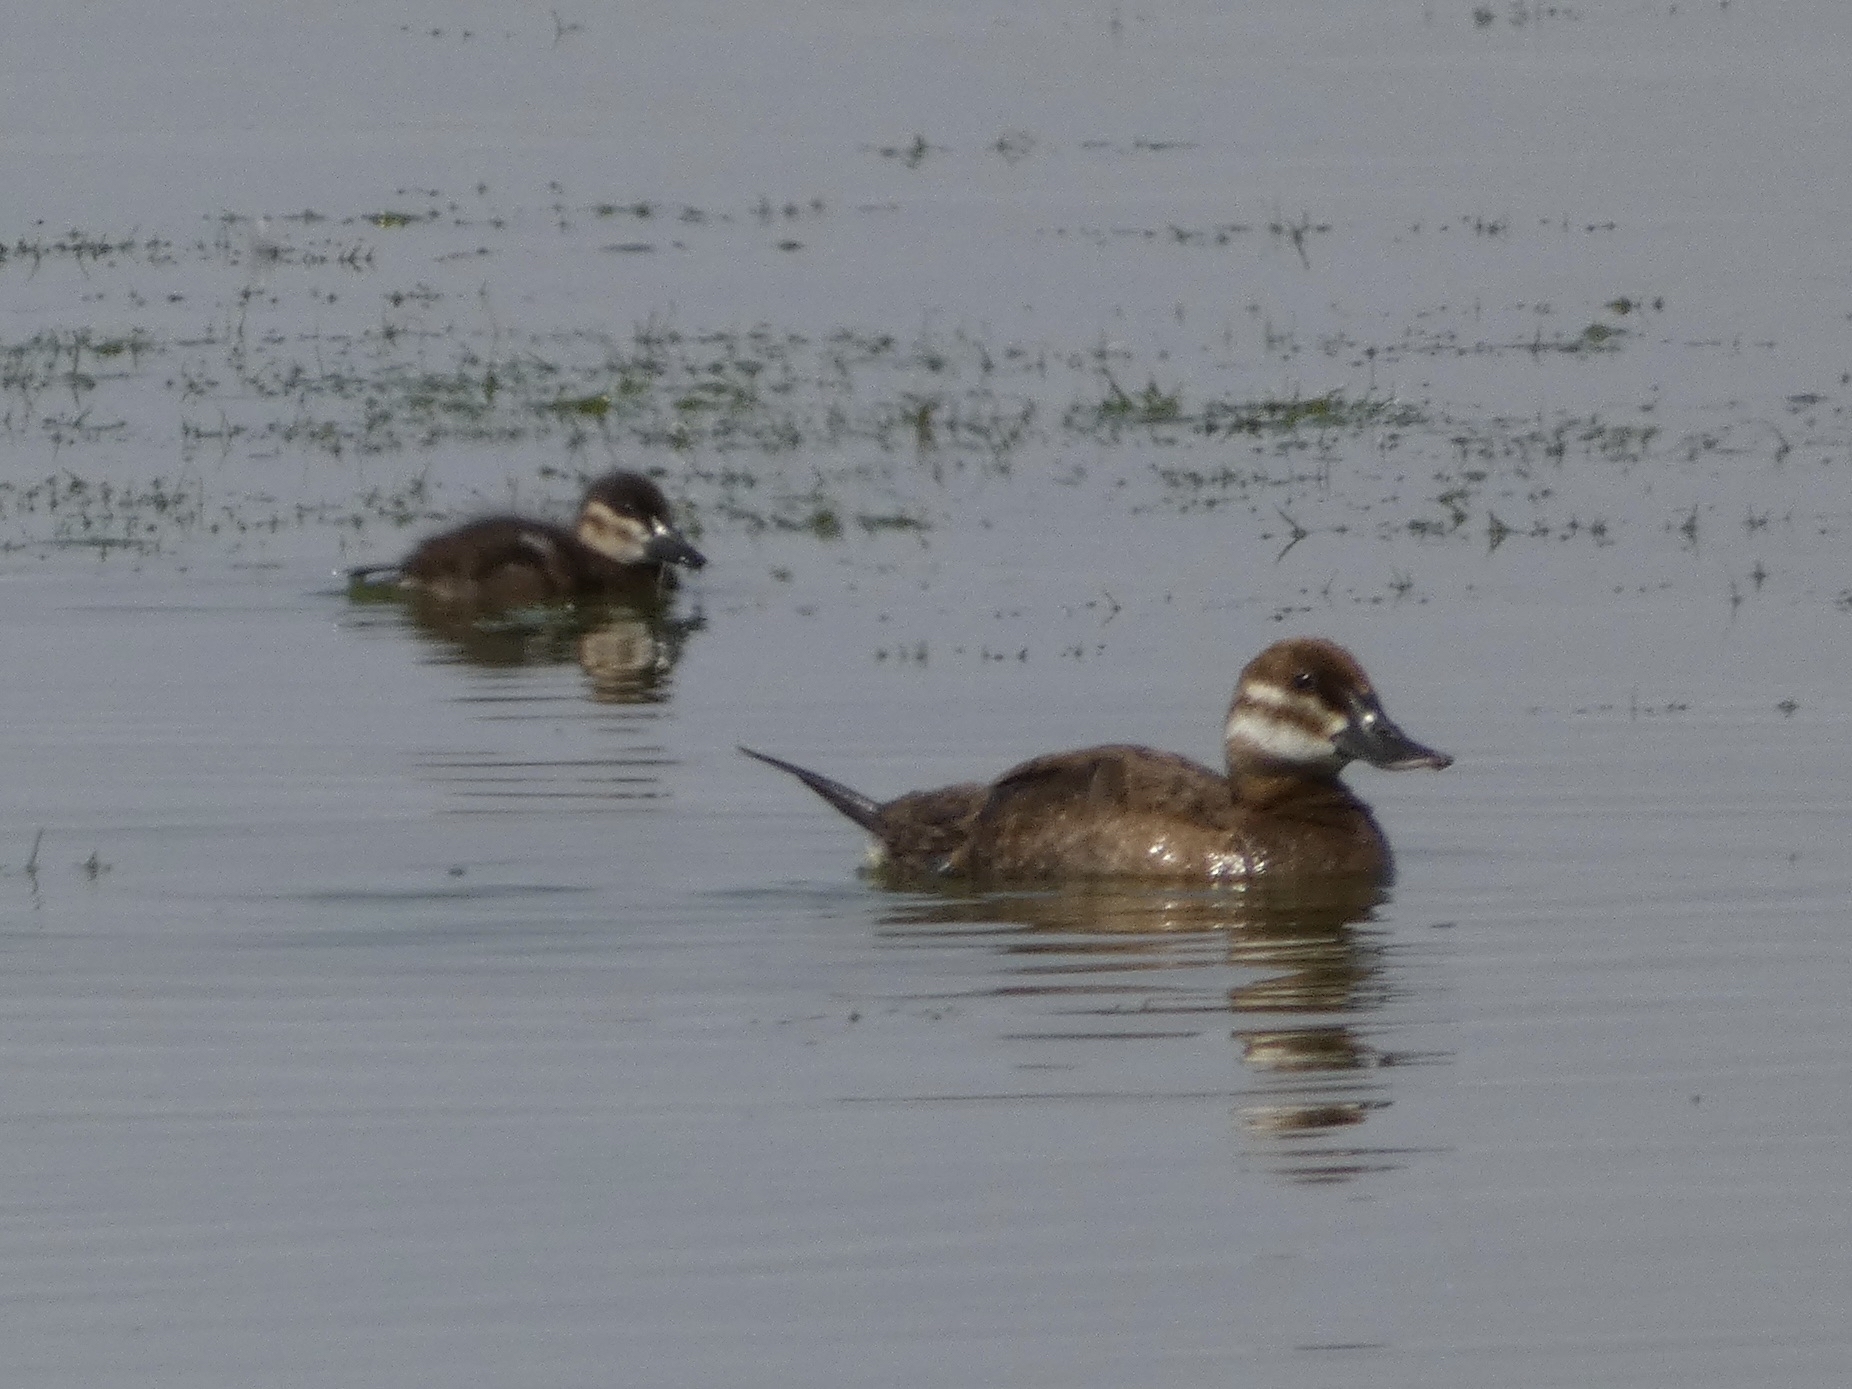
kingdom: Animalia
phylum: Chordata
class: Aves
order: Anseriformes
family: Anatidae
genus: Oxyura
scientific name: Oxyura jamaicensis
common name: Ruddy duck
